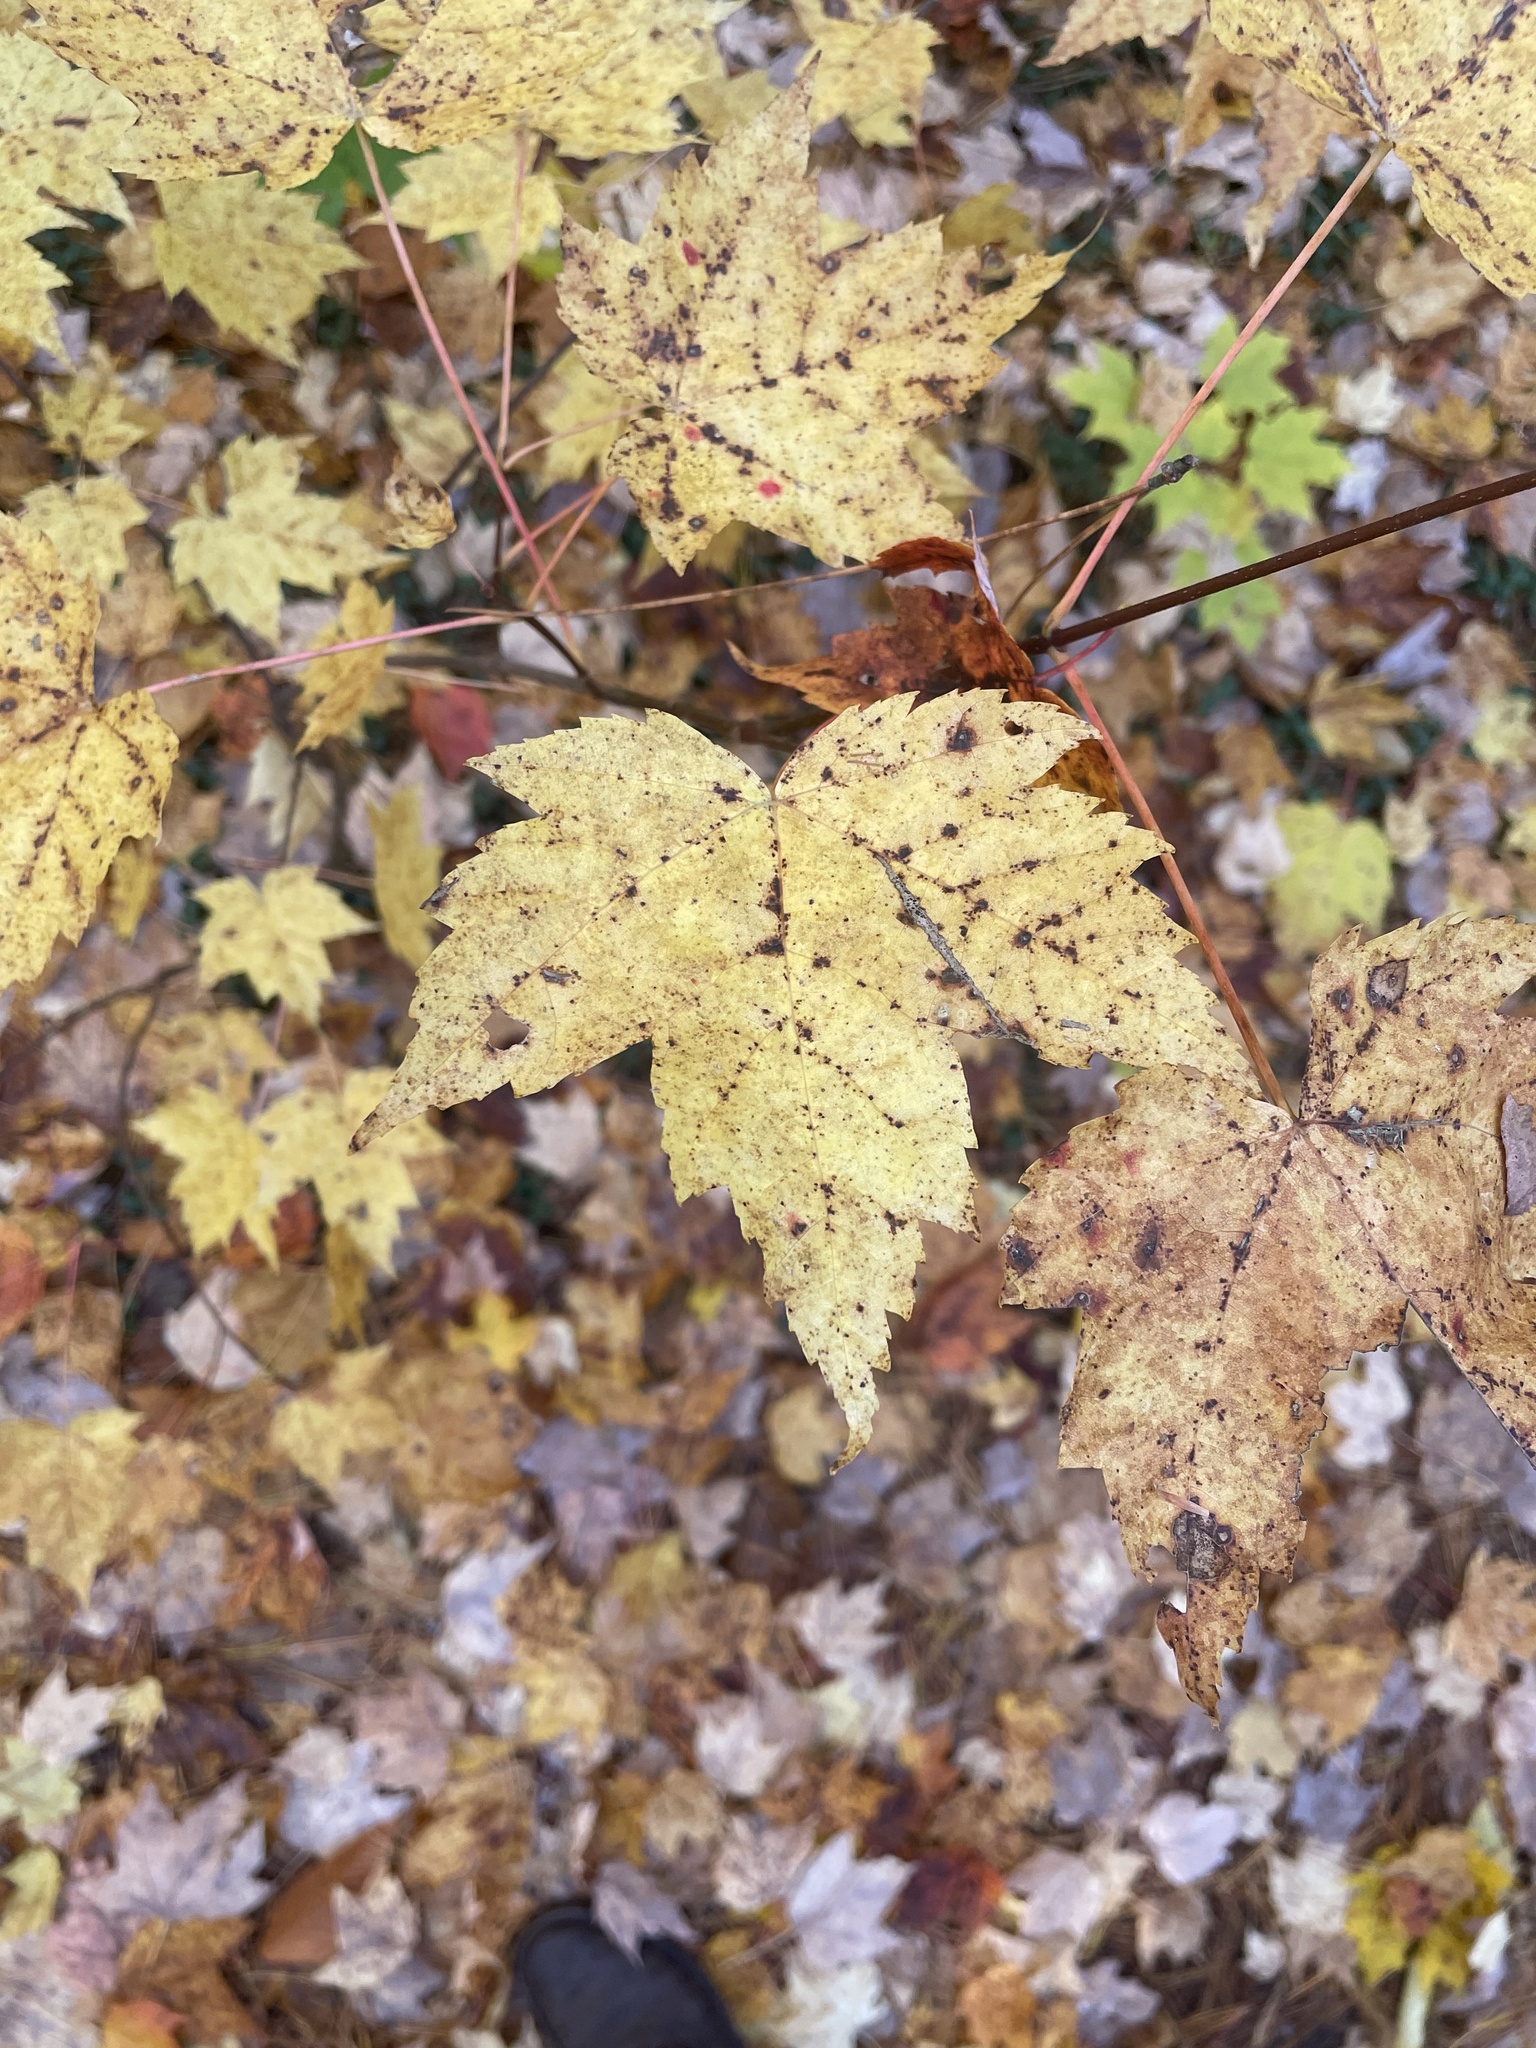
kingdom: Plantae
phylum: Tracheophyta
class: Magnoliopsida
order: Sapindales
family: Sapindaceae
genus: Acer
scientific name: Acer rubrum
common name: Red maple
